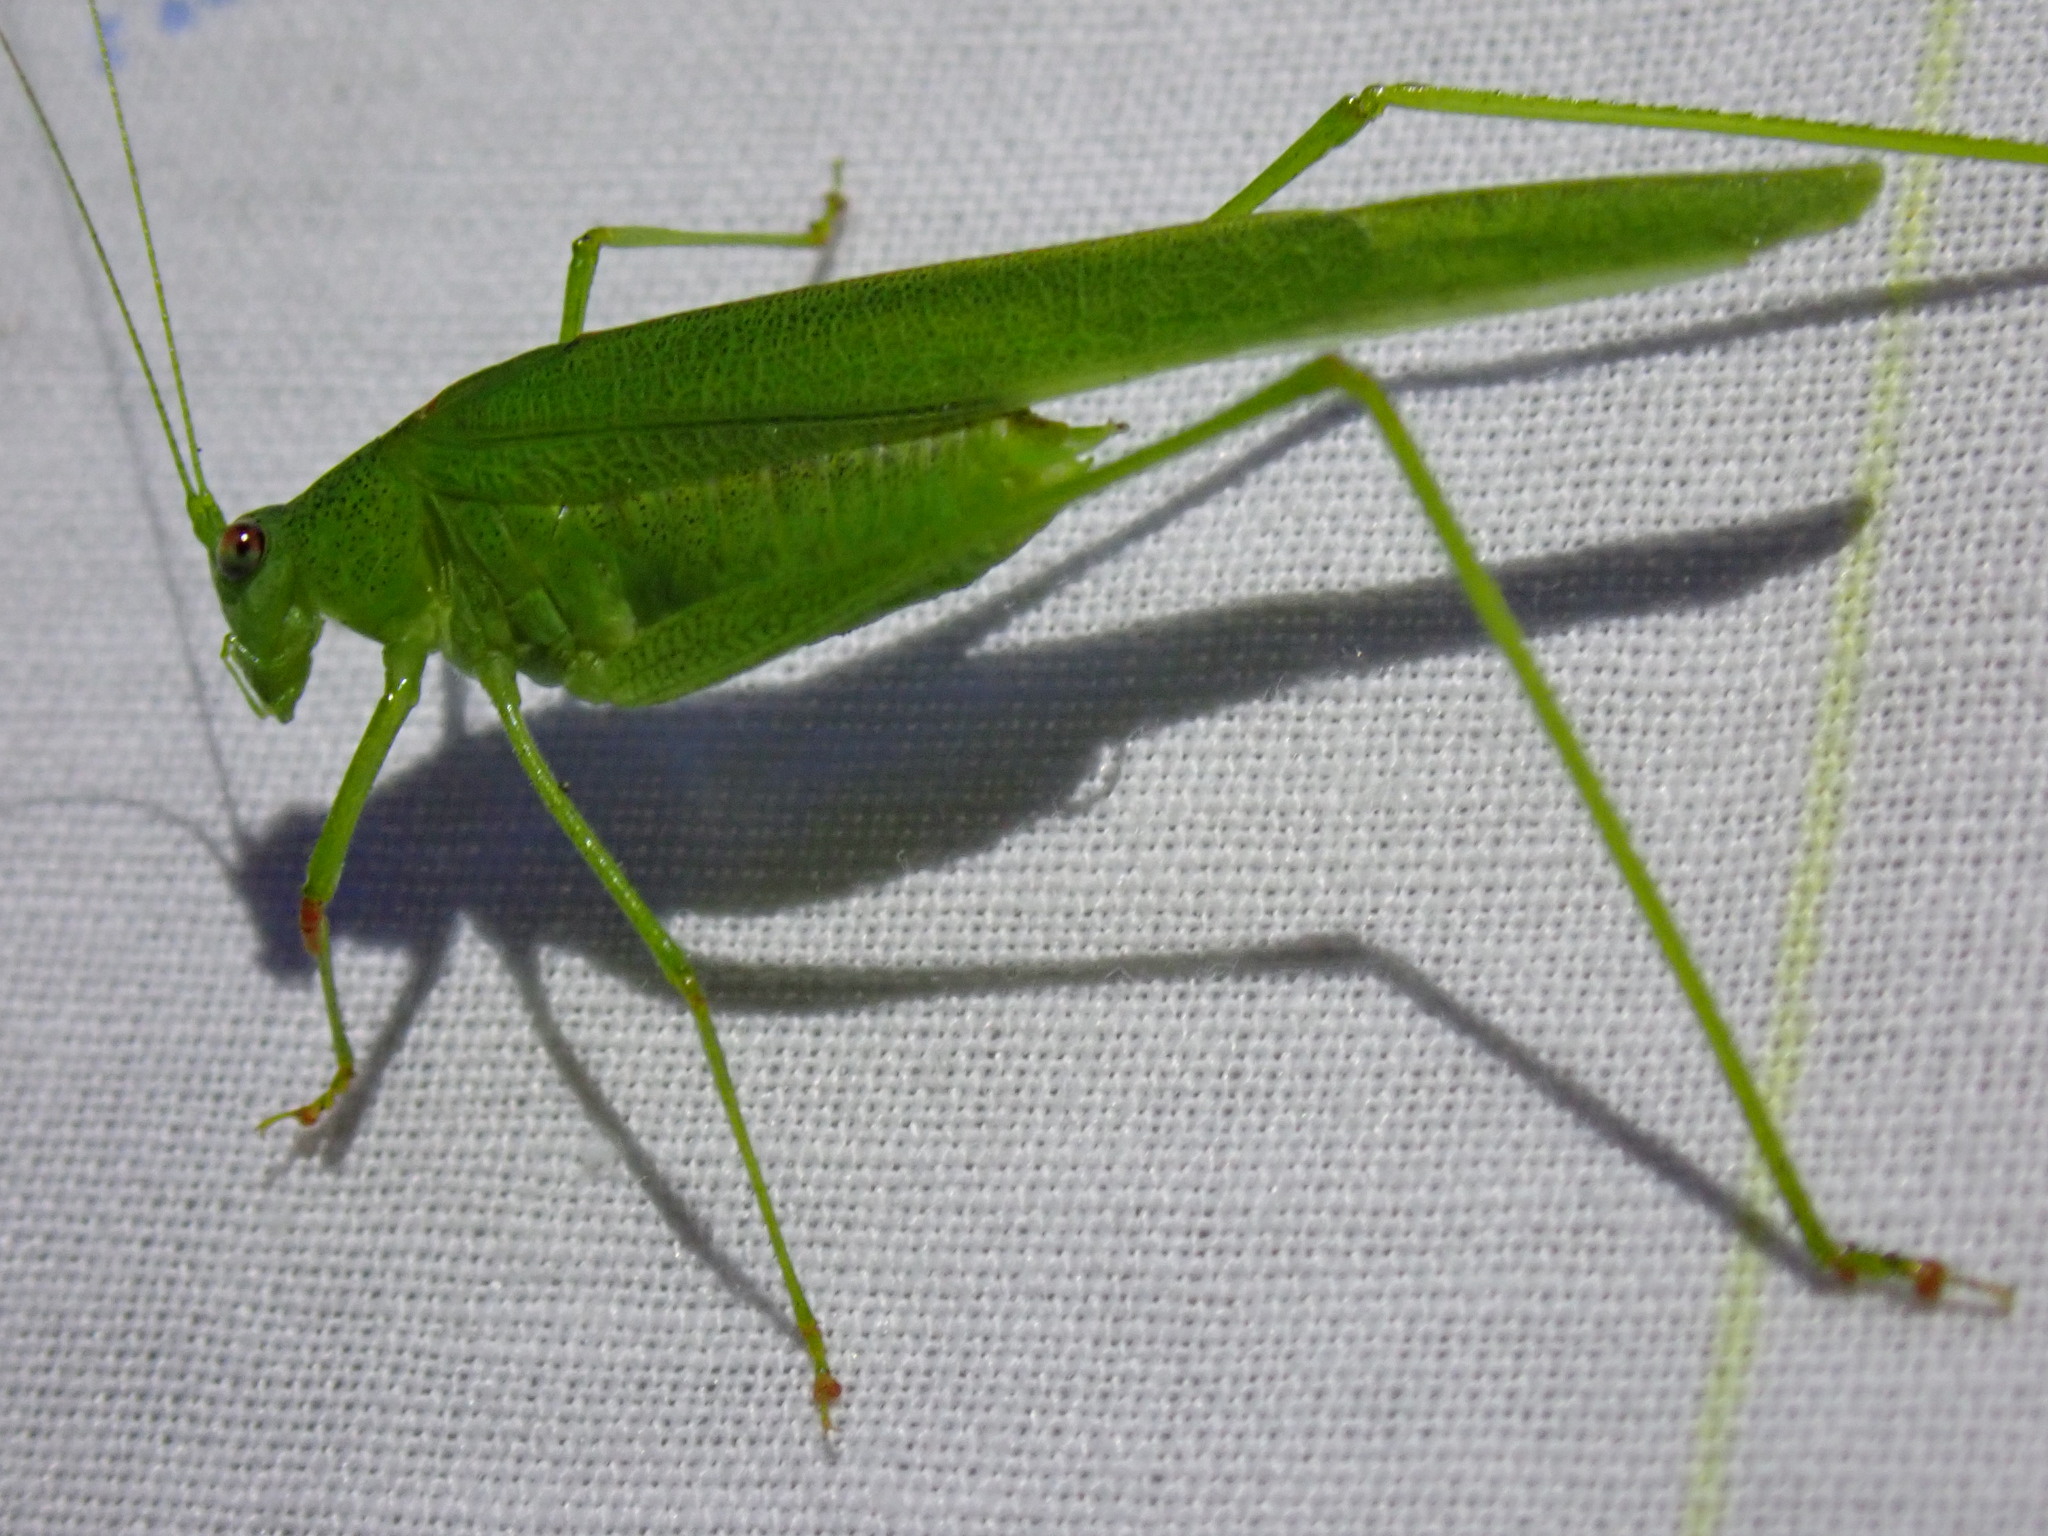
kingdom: Animalia
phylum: Arthropoda
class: Insecta
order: Orthoptera
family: Tettigoniidae
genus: Phaneroptera
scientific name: Phaneroptera sparsa
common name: Sickle-bearing leaf katydid
